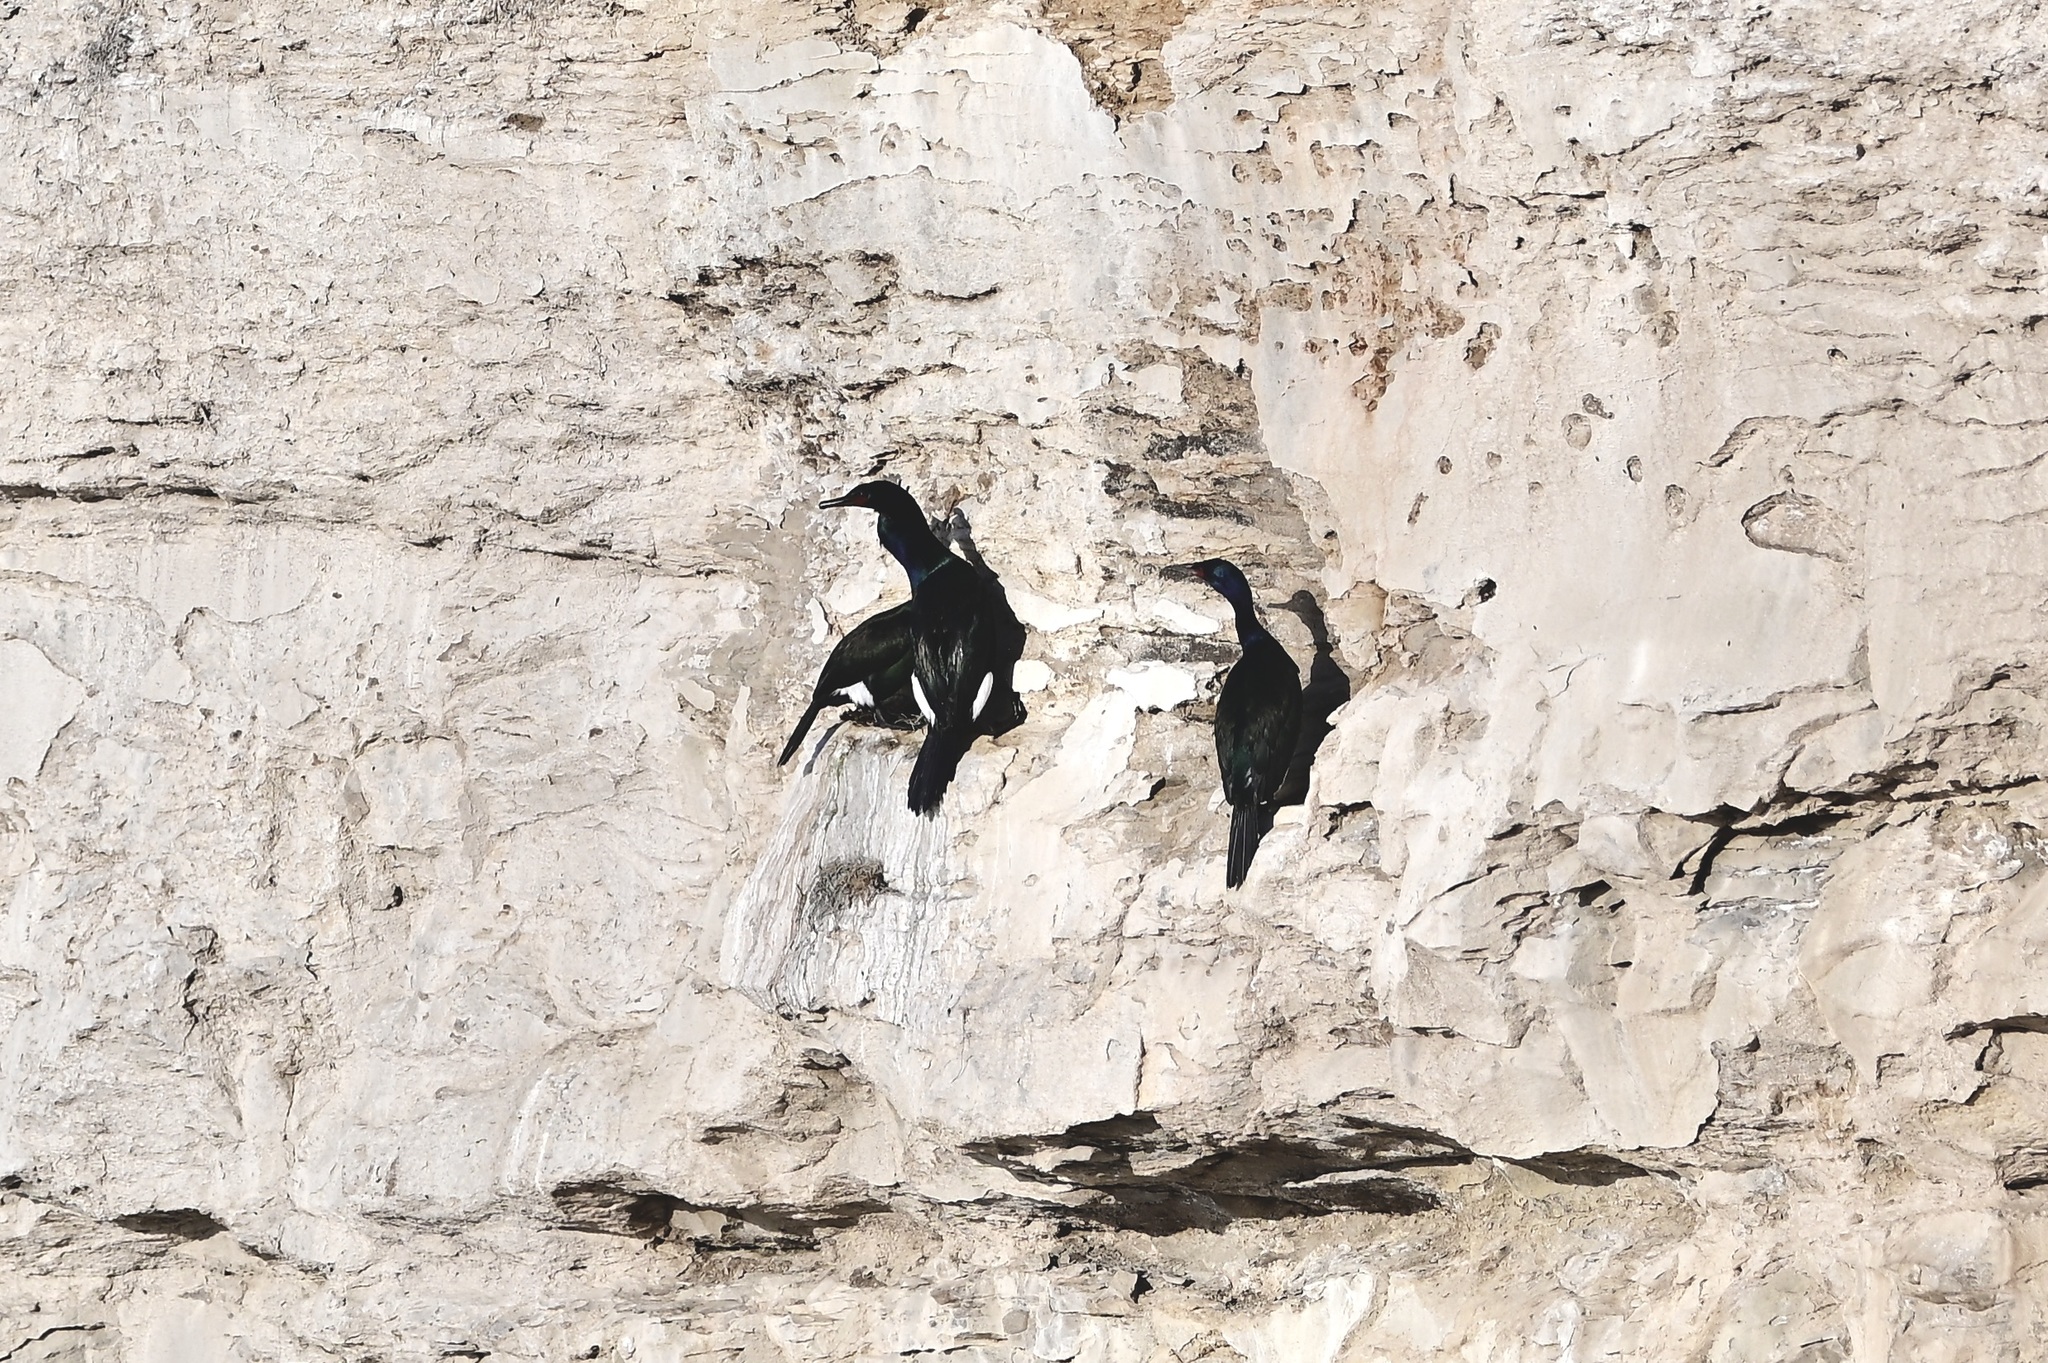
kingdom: Animalia
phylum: Chordata
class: Aves
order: Suliformes
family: Phalacrocoracidae
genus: Phalacrocorax
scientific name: Phalacrocorax pelagicus
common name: Pelagic cormorant
